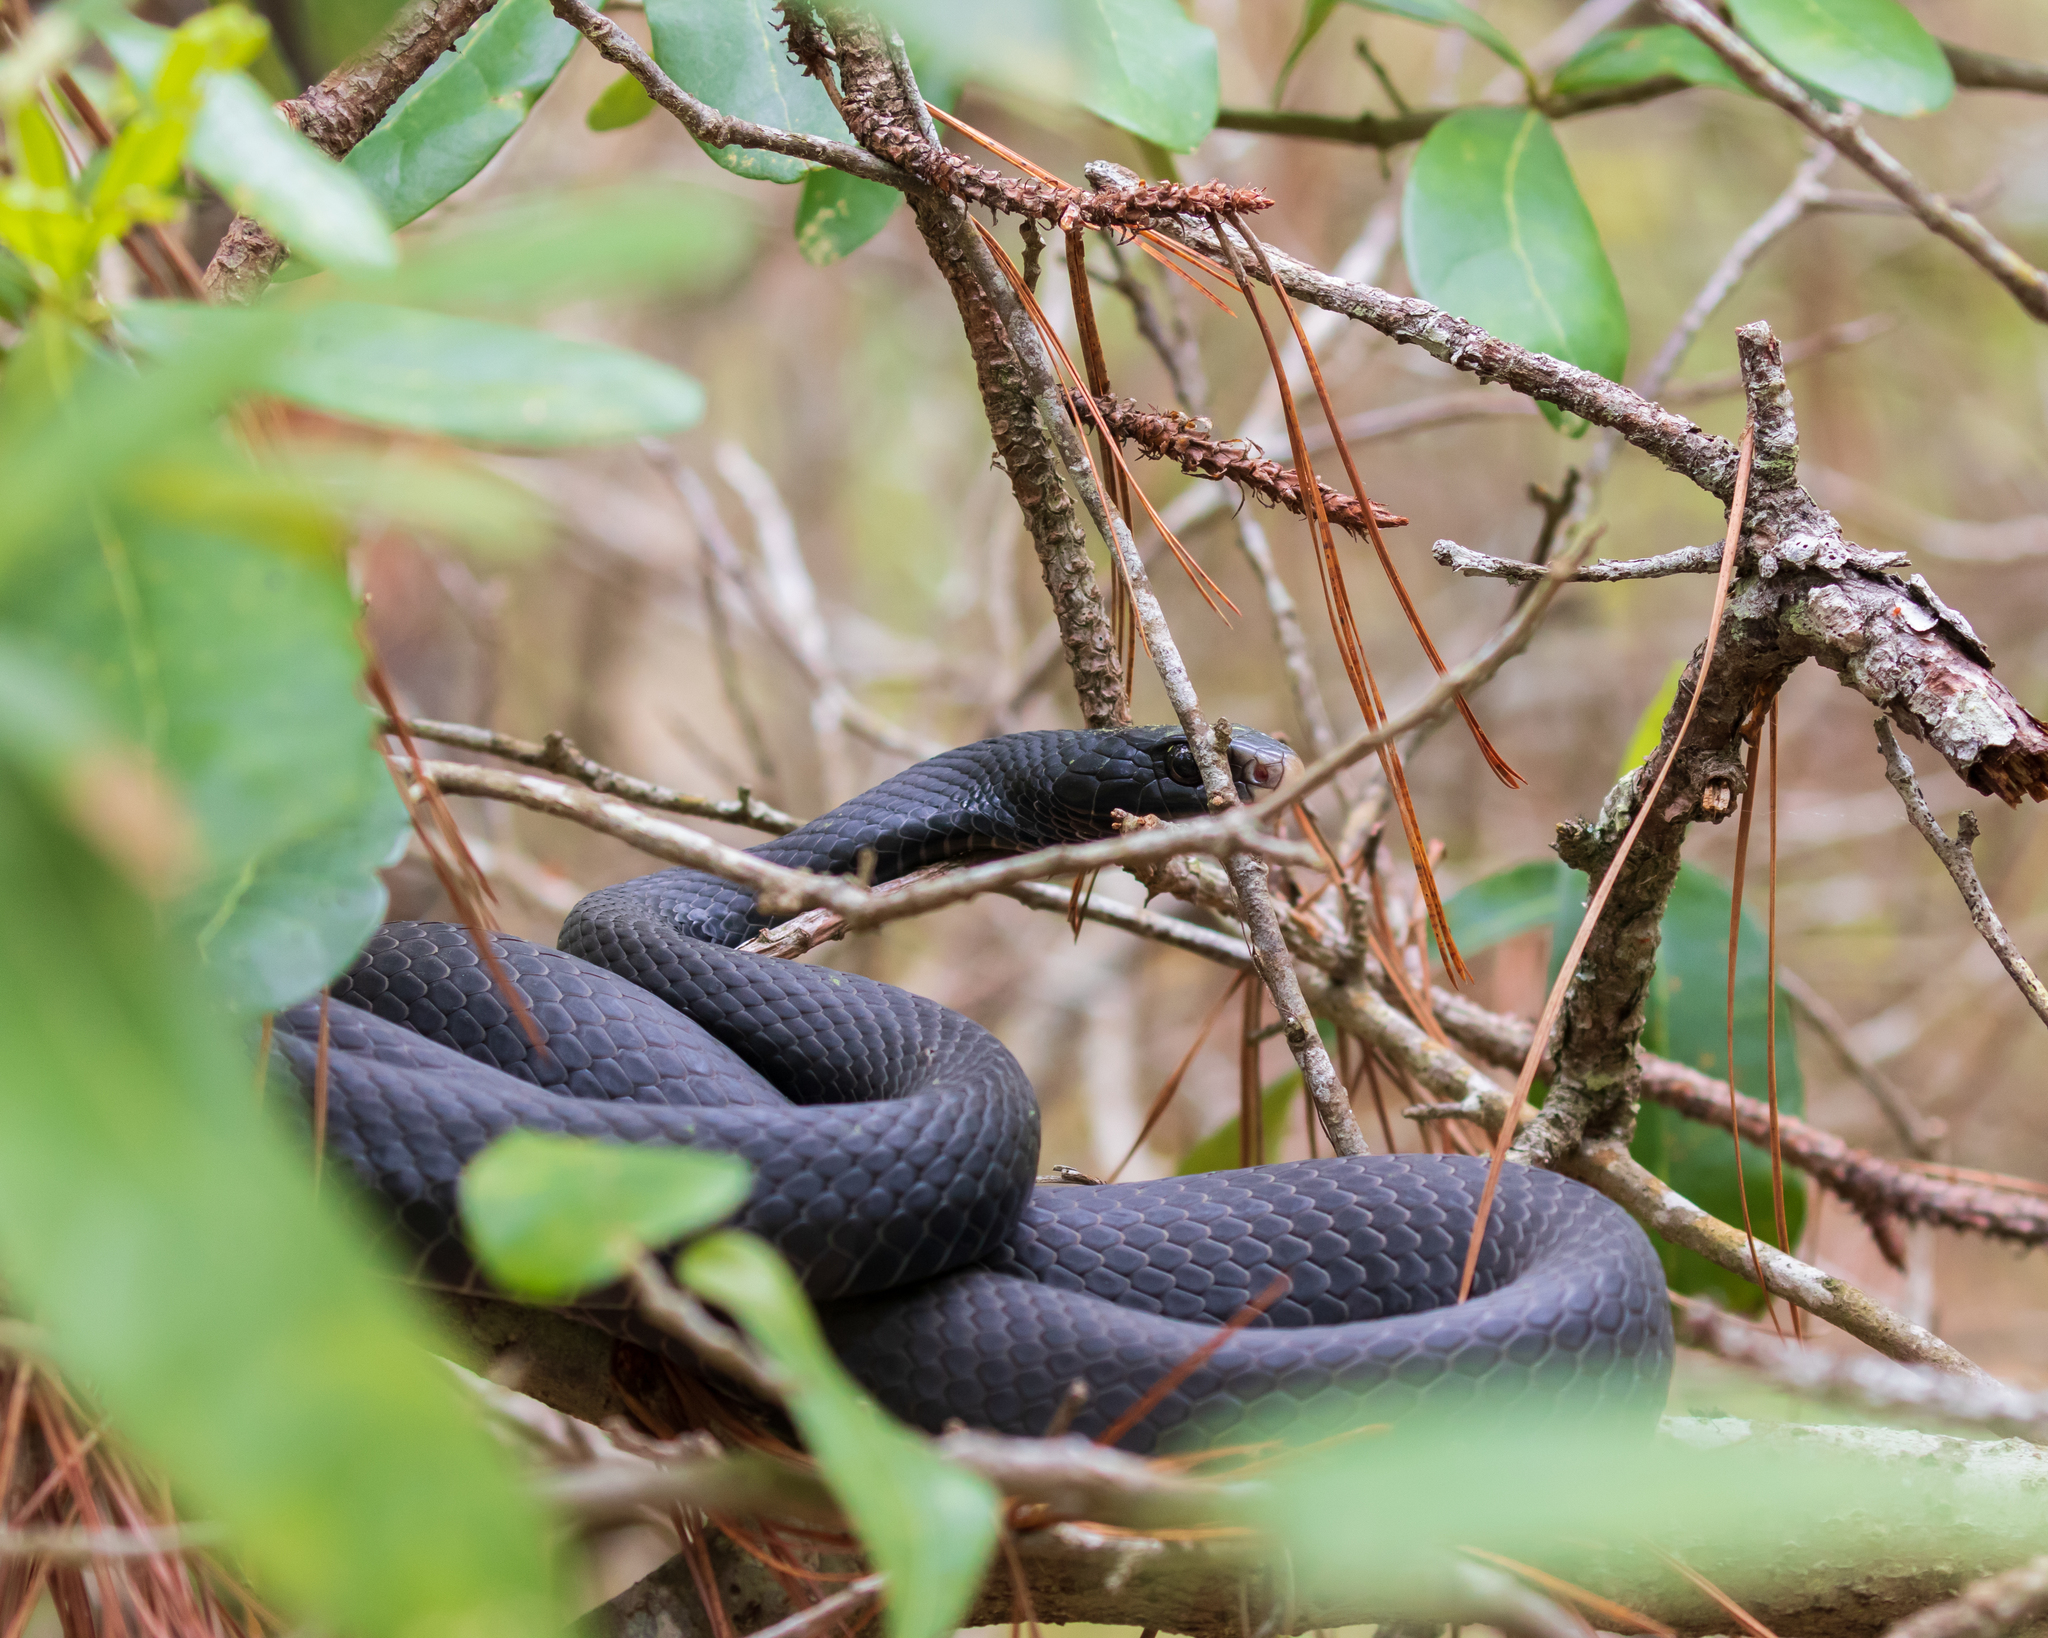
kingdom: Animalia
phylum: Chordata
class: Squamata
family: Colubridae
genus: Coluber
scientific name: Coluber constrictor
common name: Eastern racer
